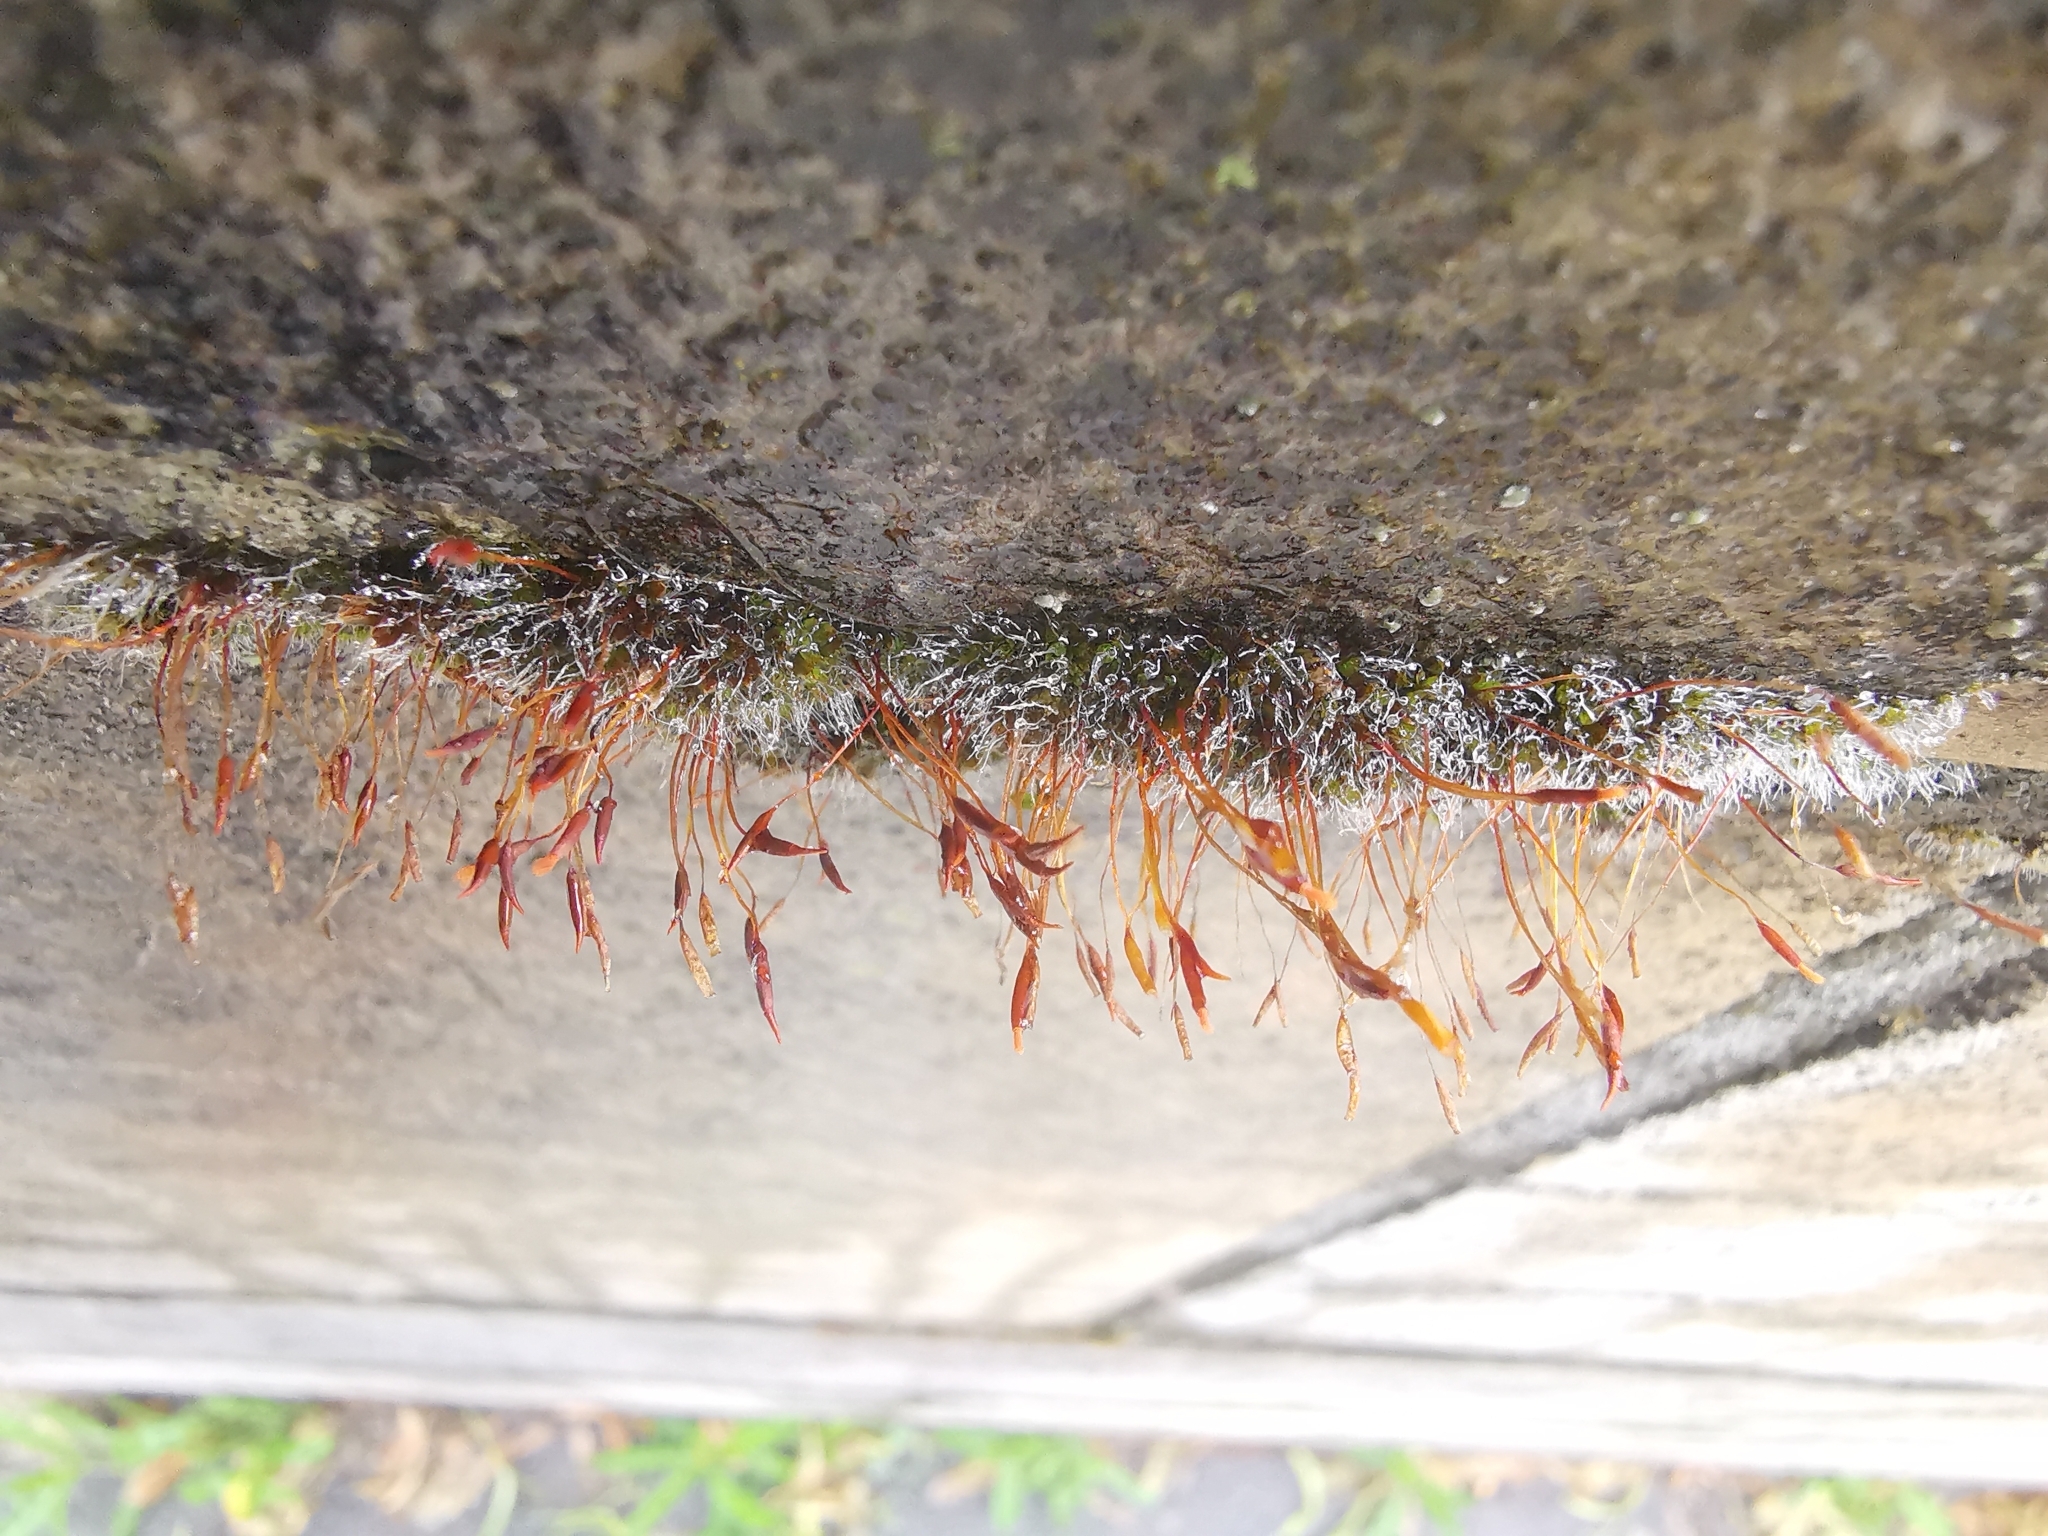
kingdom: Plantae
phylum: Bryophyta
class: Bryopsida
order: Pottiales
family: Pottiaceae
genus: Tortula
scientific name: Tortula muralis
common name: Wall screw-moss
